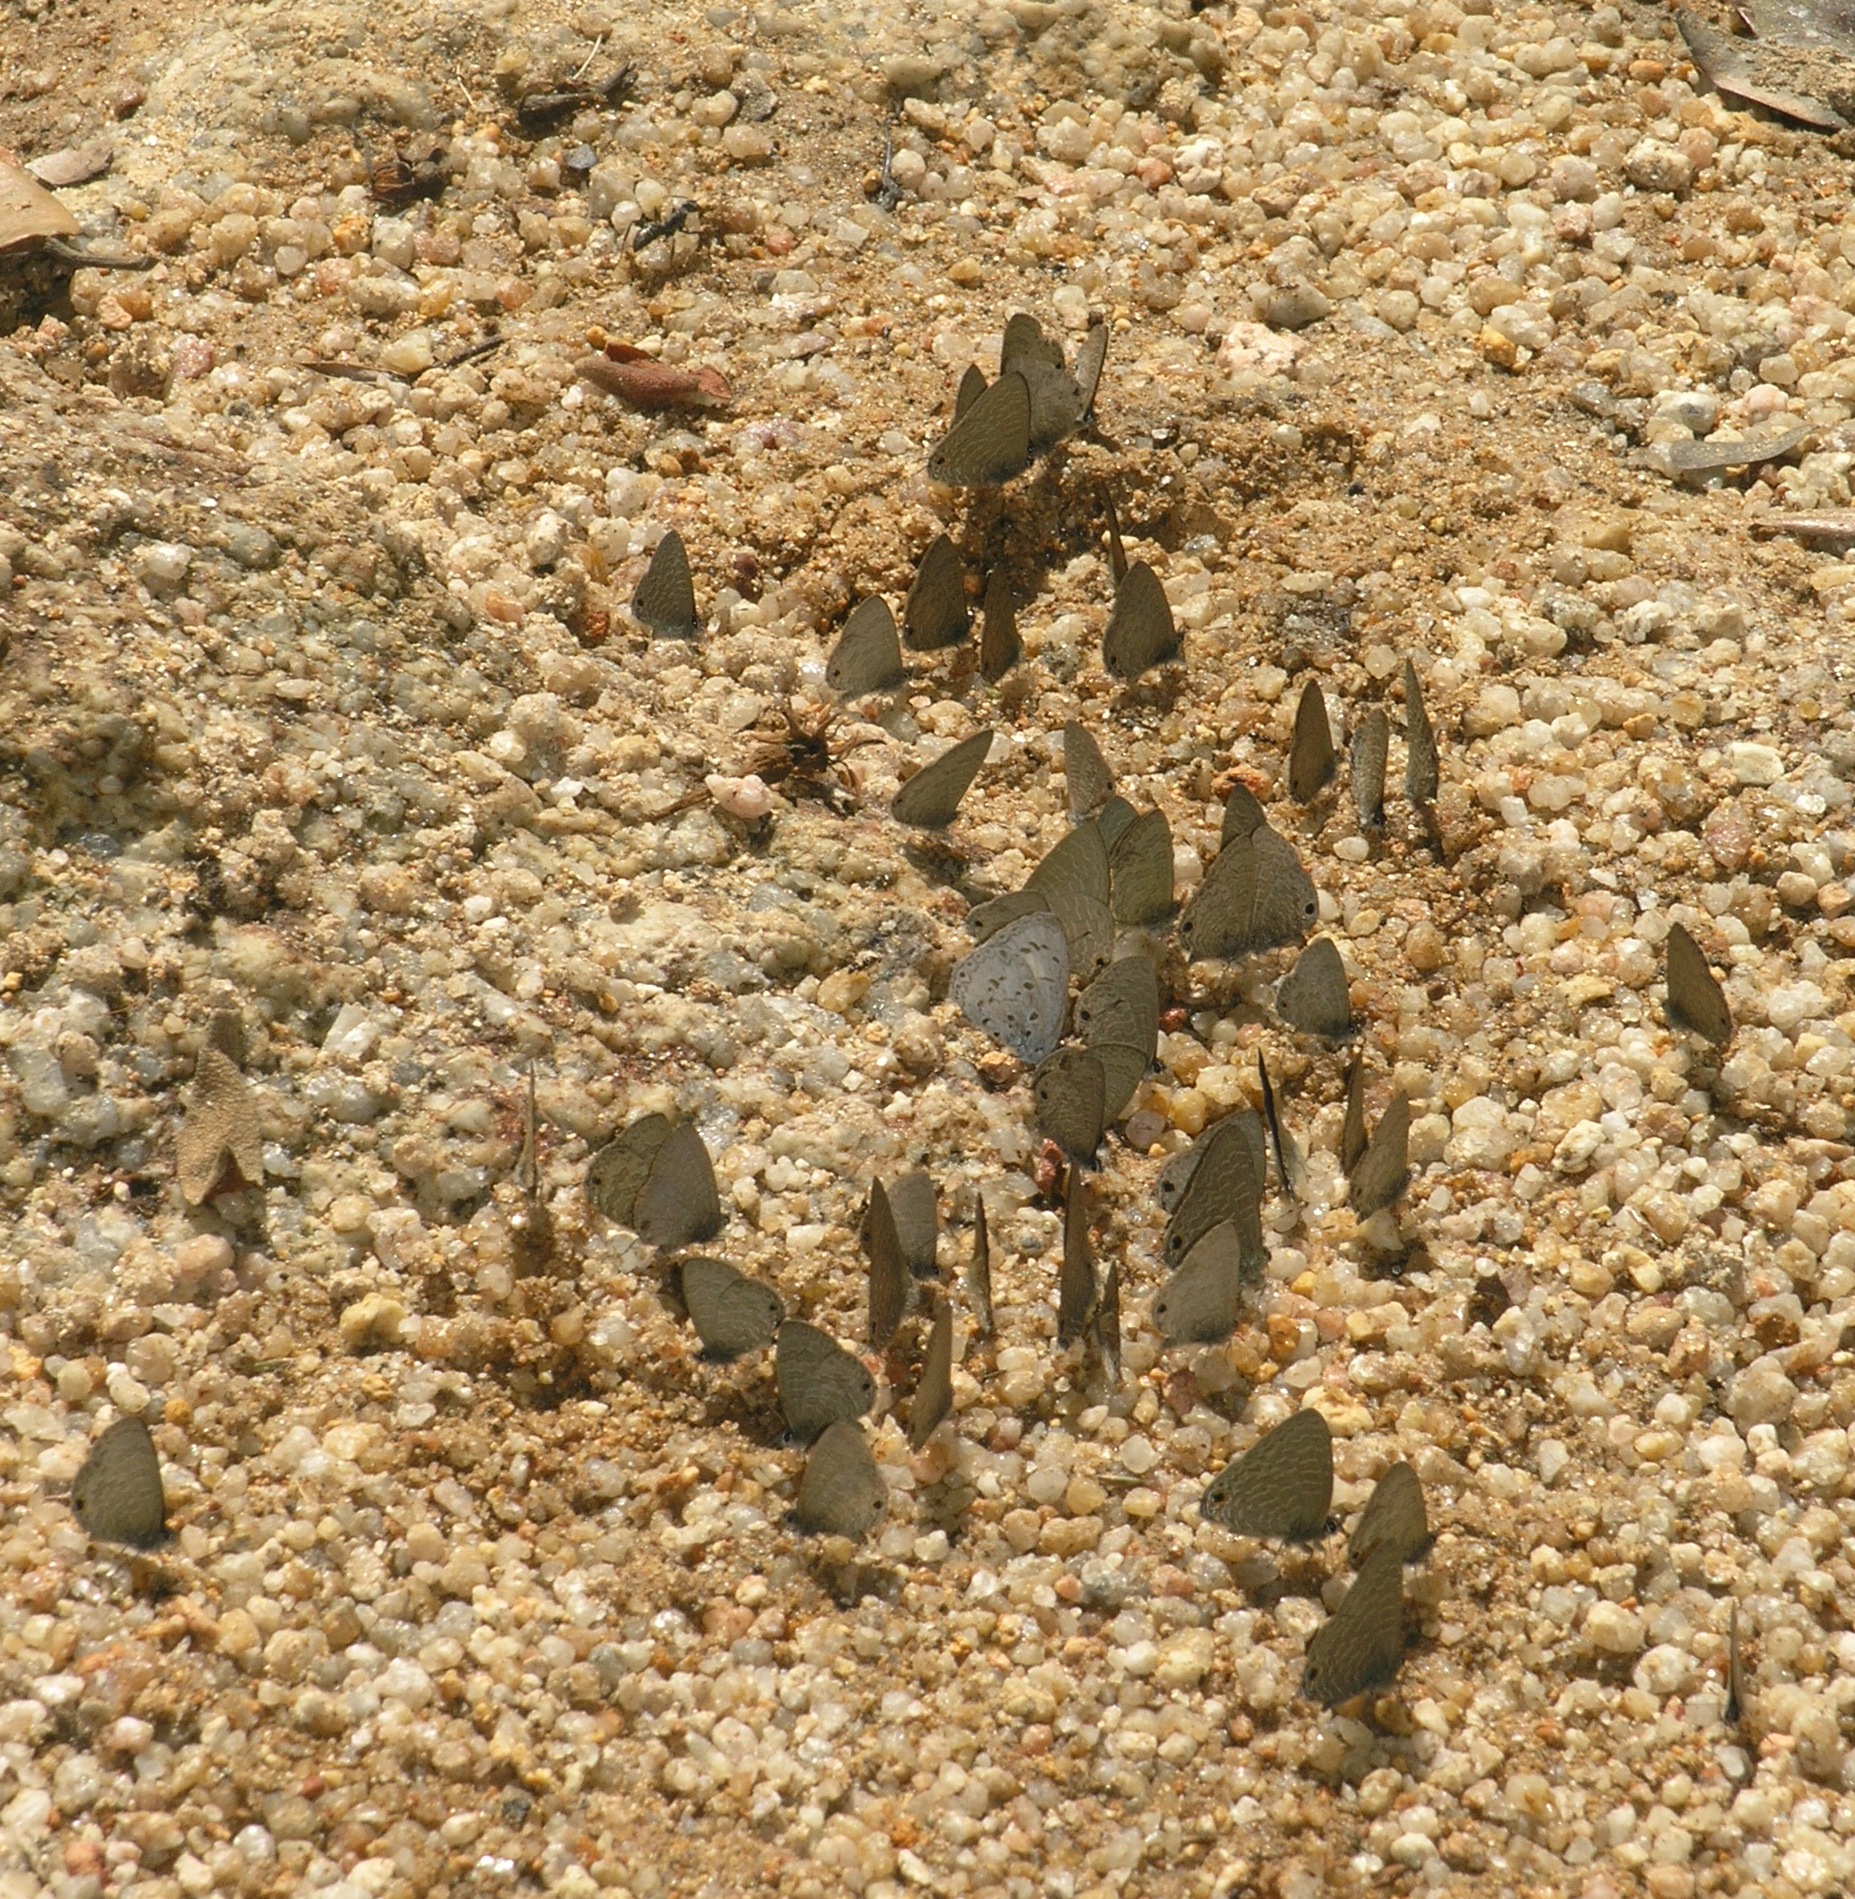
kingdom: Animalia
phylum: Arthropoda
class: Insecta
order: Lepidoptera
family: Lycaenidae
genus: Ionolyce
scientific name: Ionolyce helicon
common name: Pointed line blue
